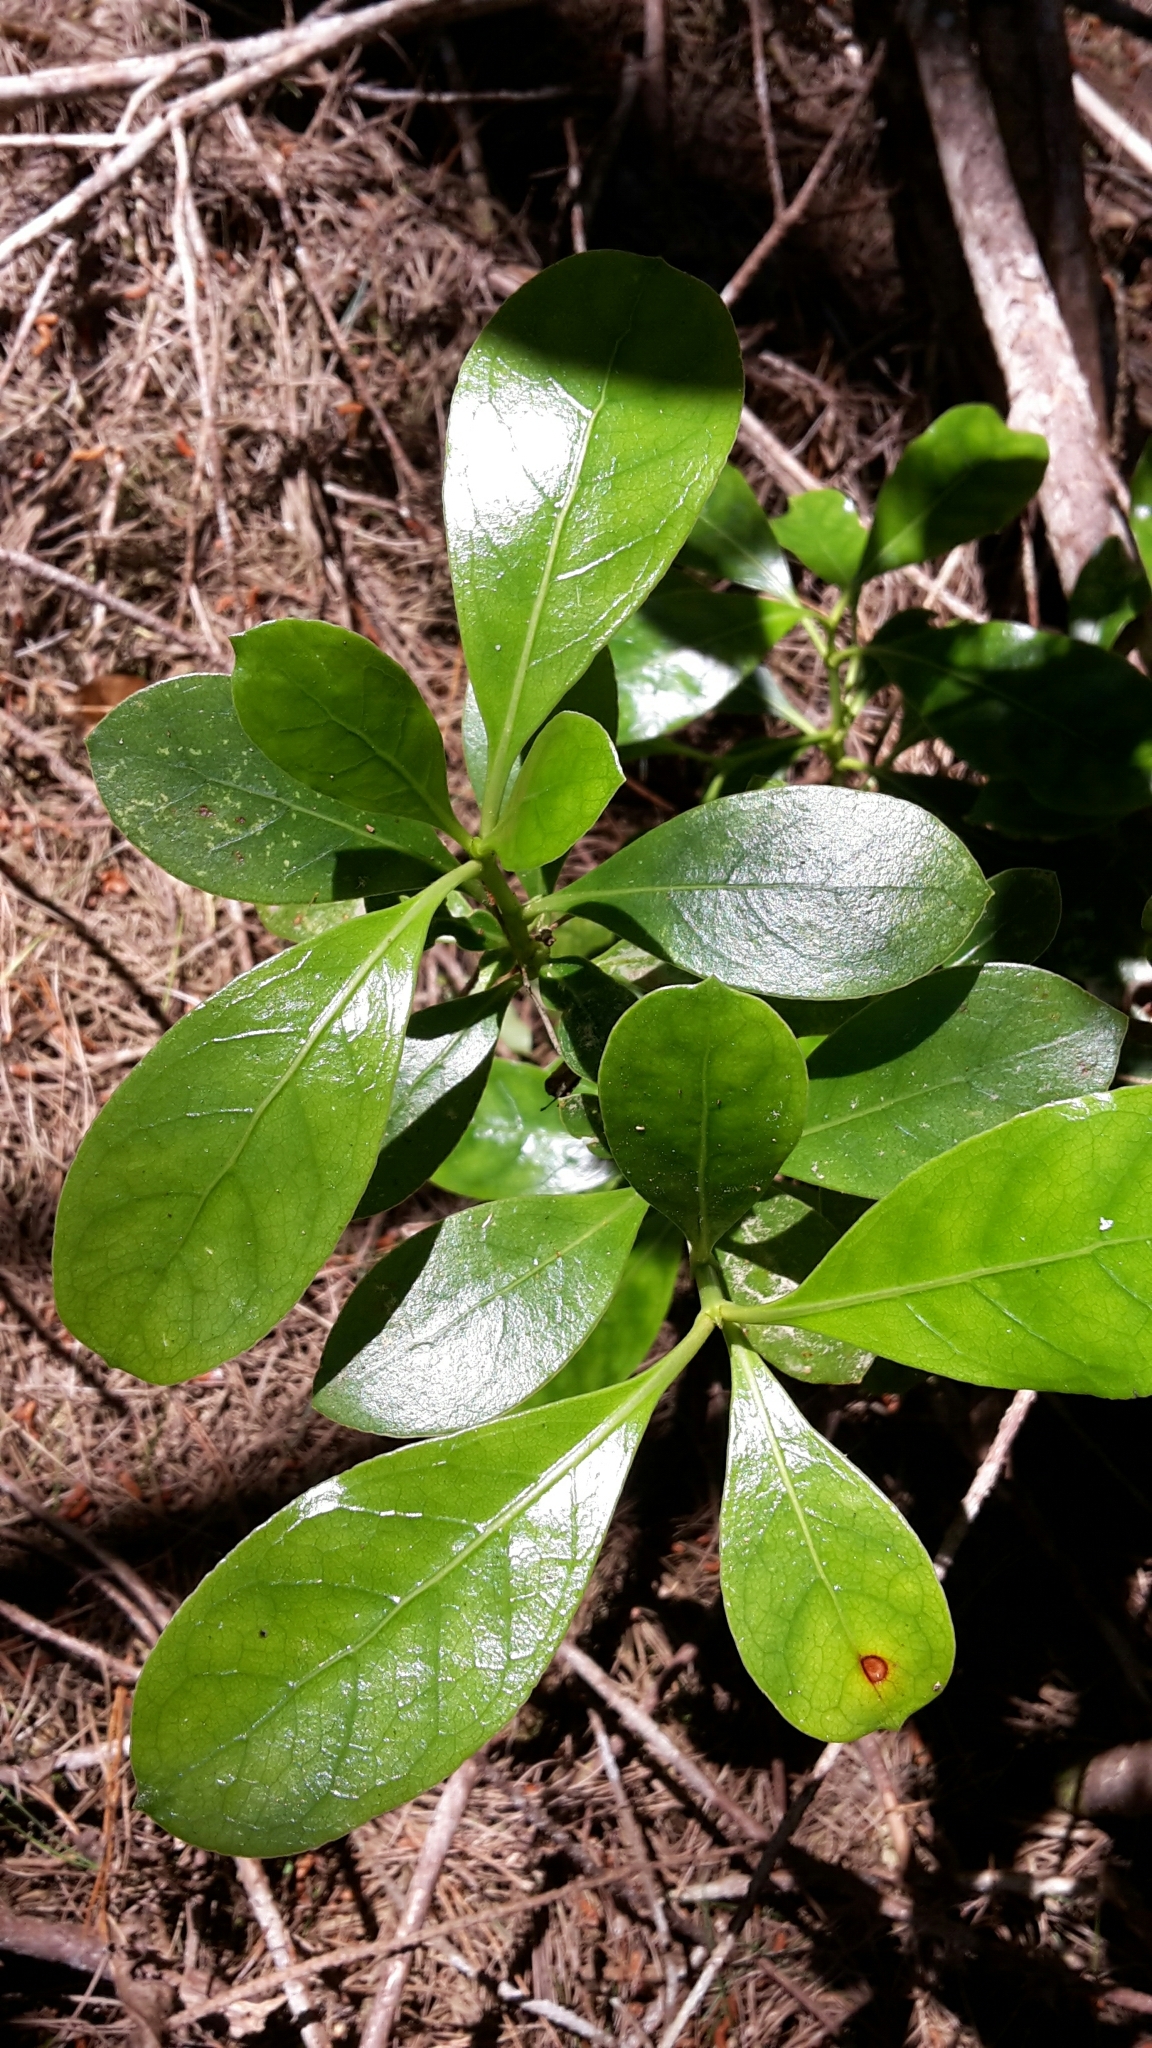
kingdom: Plantae
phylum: Tracheophyta
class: Magnoliopsida
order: Gentianales
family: Rubiaceae
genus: Coprosma
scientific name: Coprosma lucida
